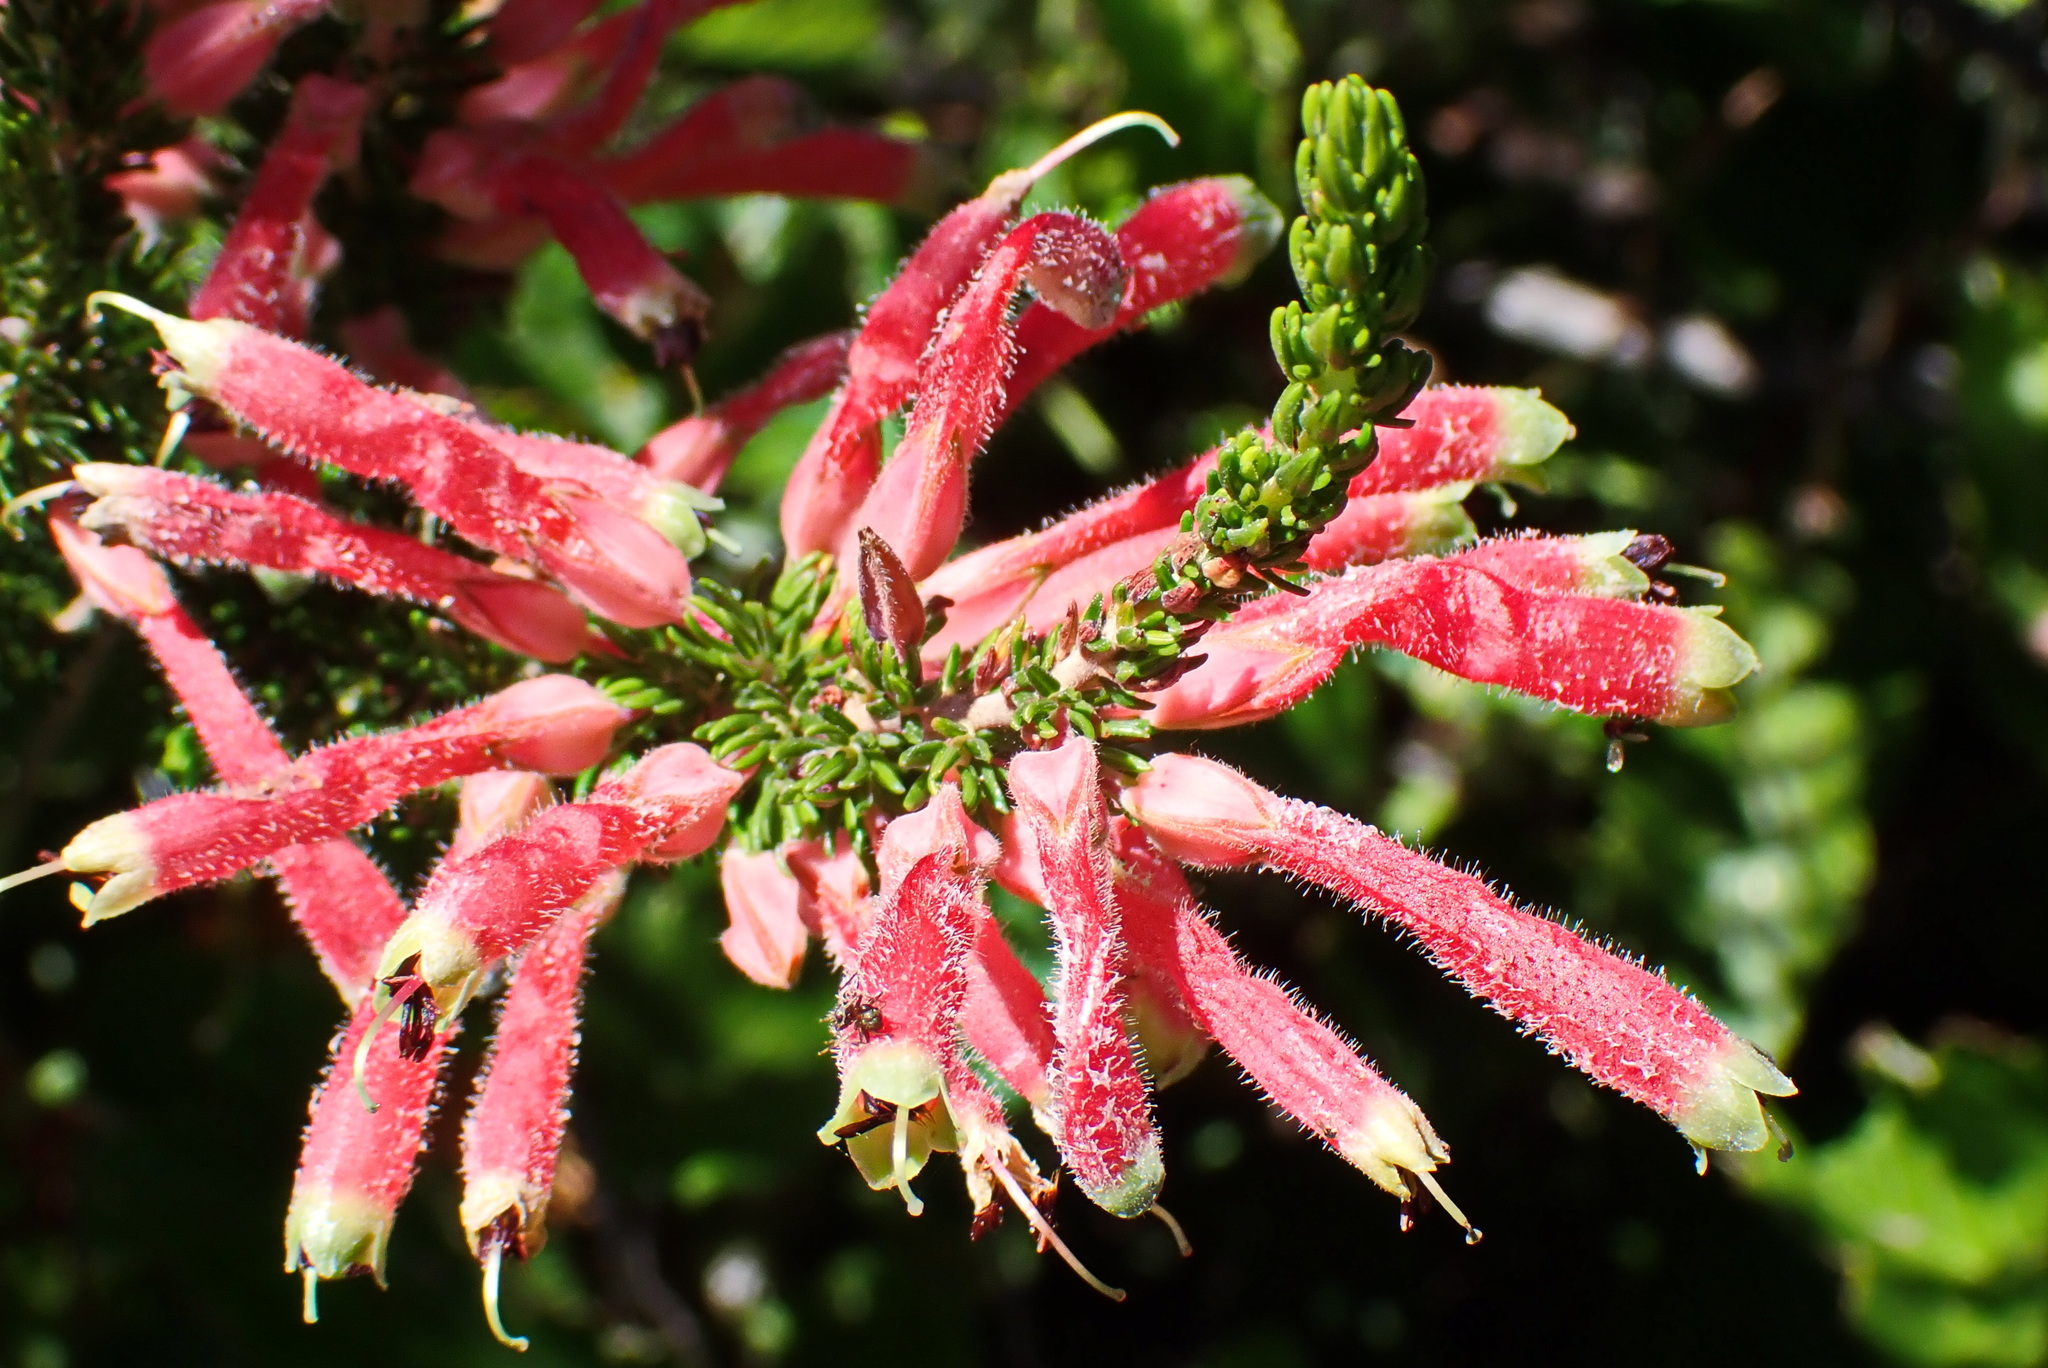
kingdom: Plantae
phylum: Tracheophyta
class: Magnoliopsida
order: Ericales
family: Ericaceae
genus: Erica
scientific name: Erica densifolia
